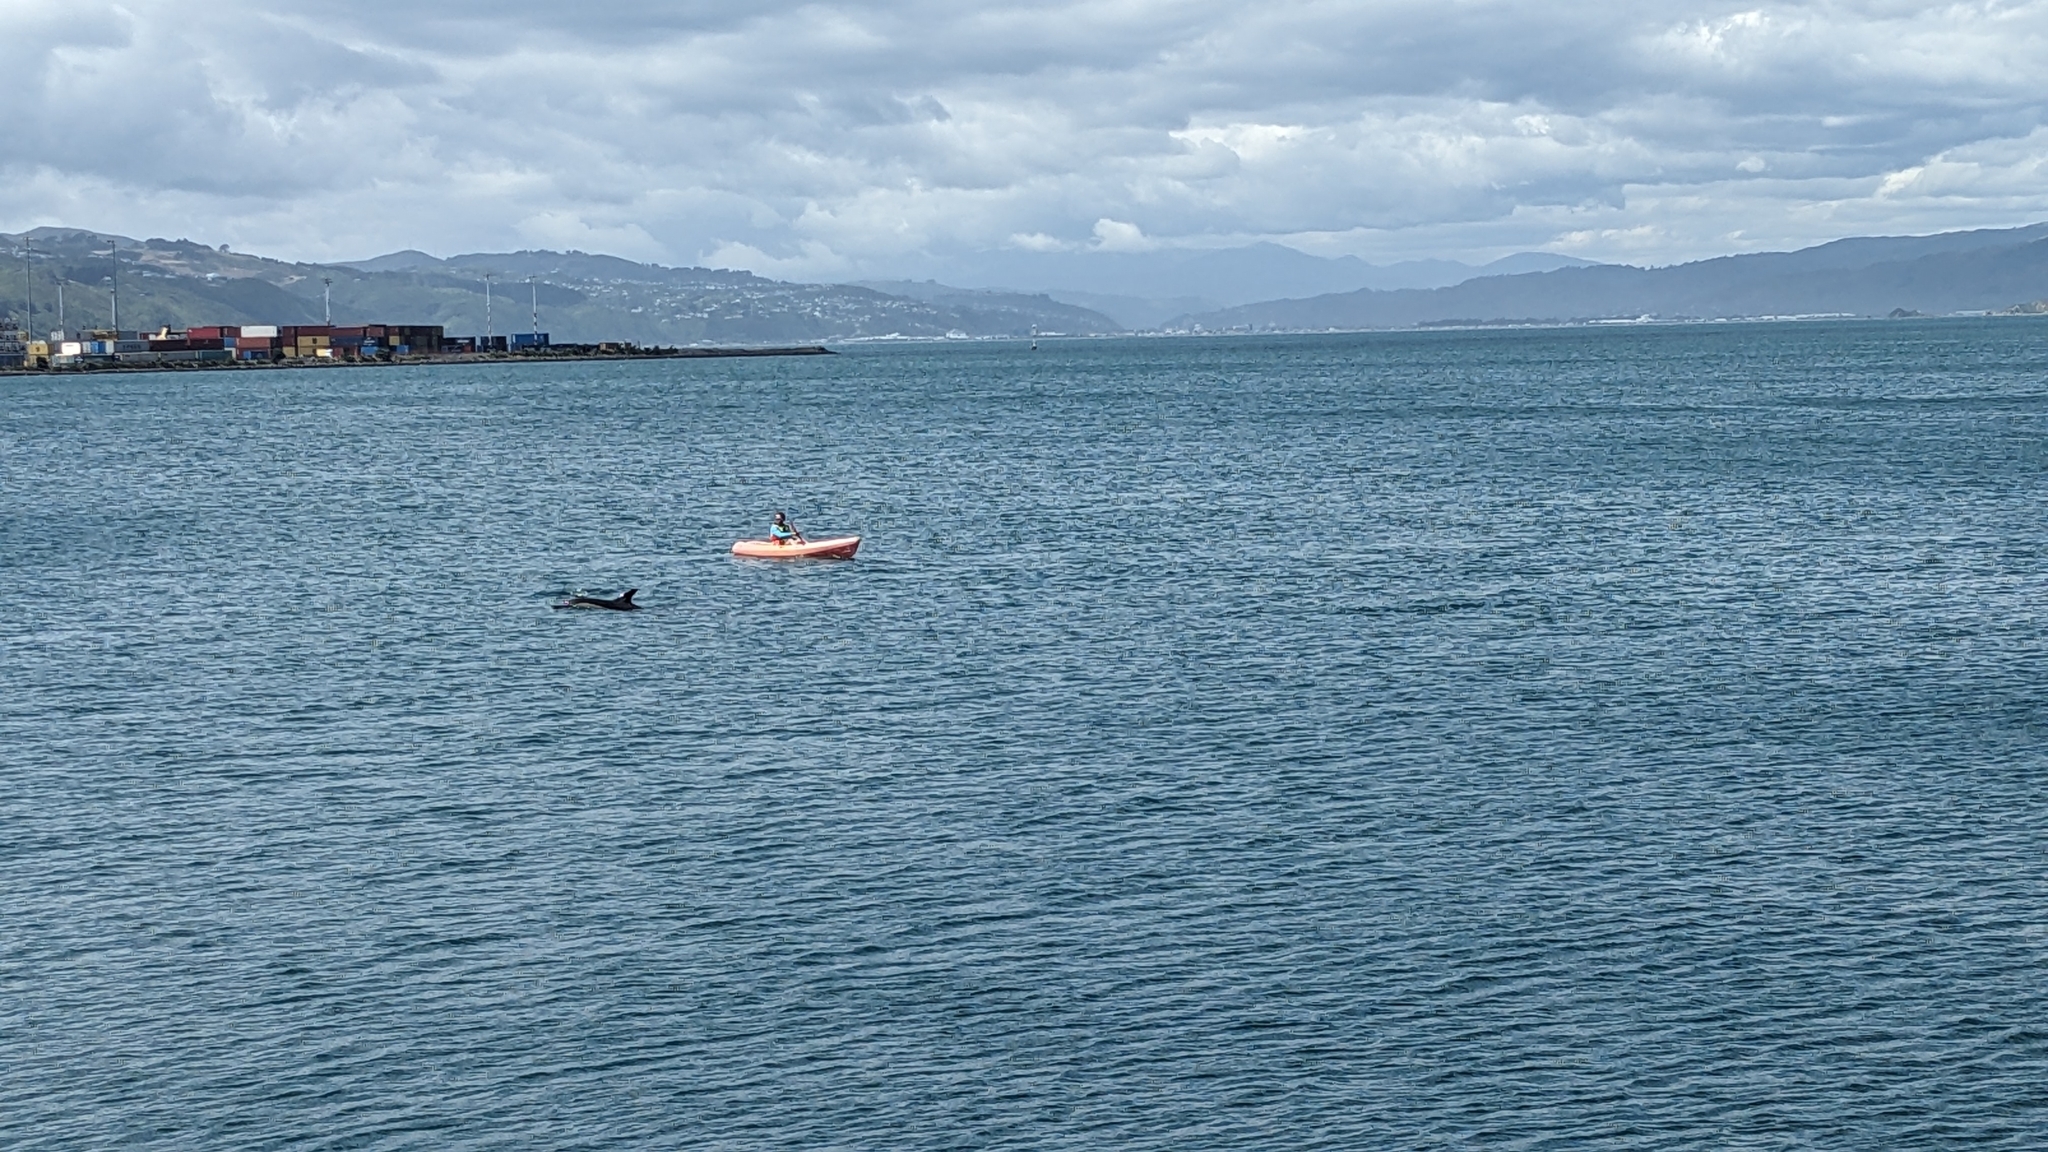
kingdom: Animalia
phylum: Chordata
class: Mammalia
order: Cetacea
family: Delphinidae
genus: Delphinus
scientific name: Delphinus delphis
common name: Common dolphin
